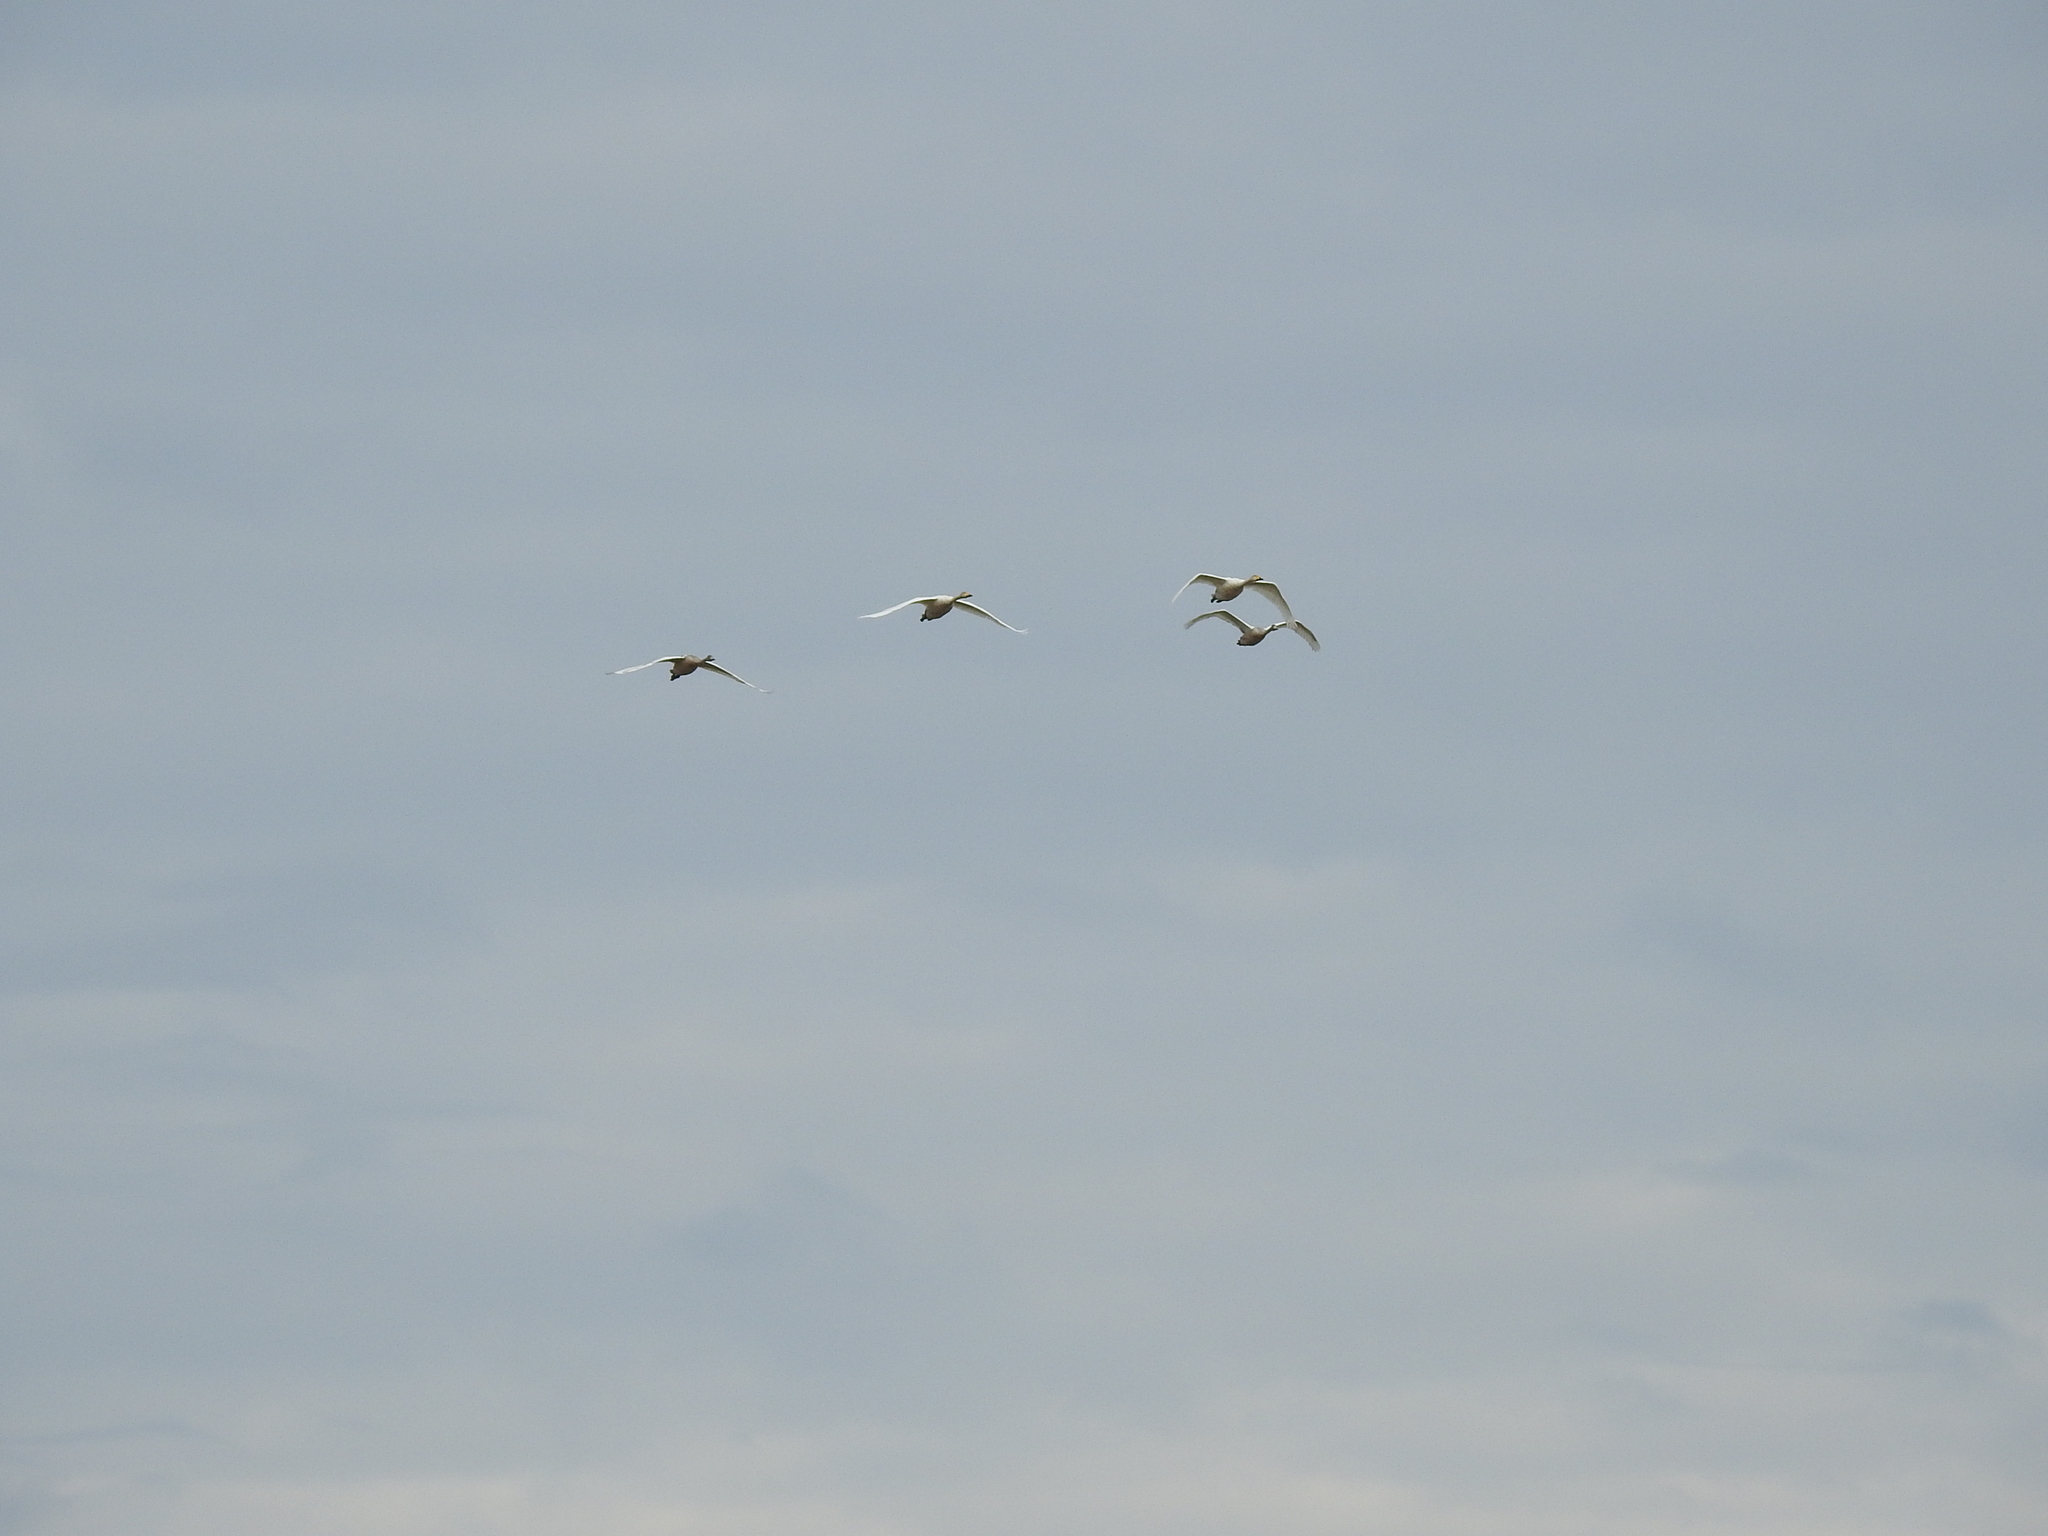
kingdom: Animalia
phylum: Chordata
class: Aves
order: Anseriformes
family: Anatidae
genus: Cygnus
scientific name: Cygnus cygnus
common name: Whooper swan
